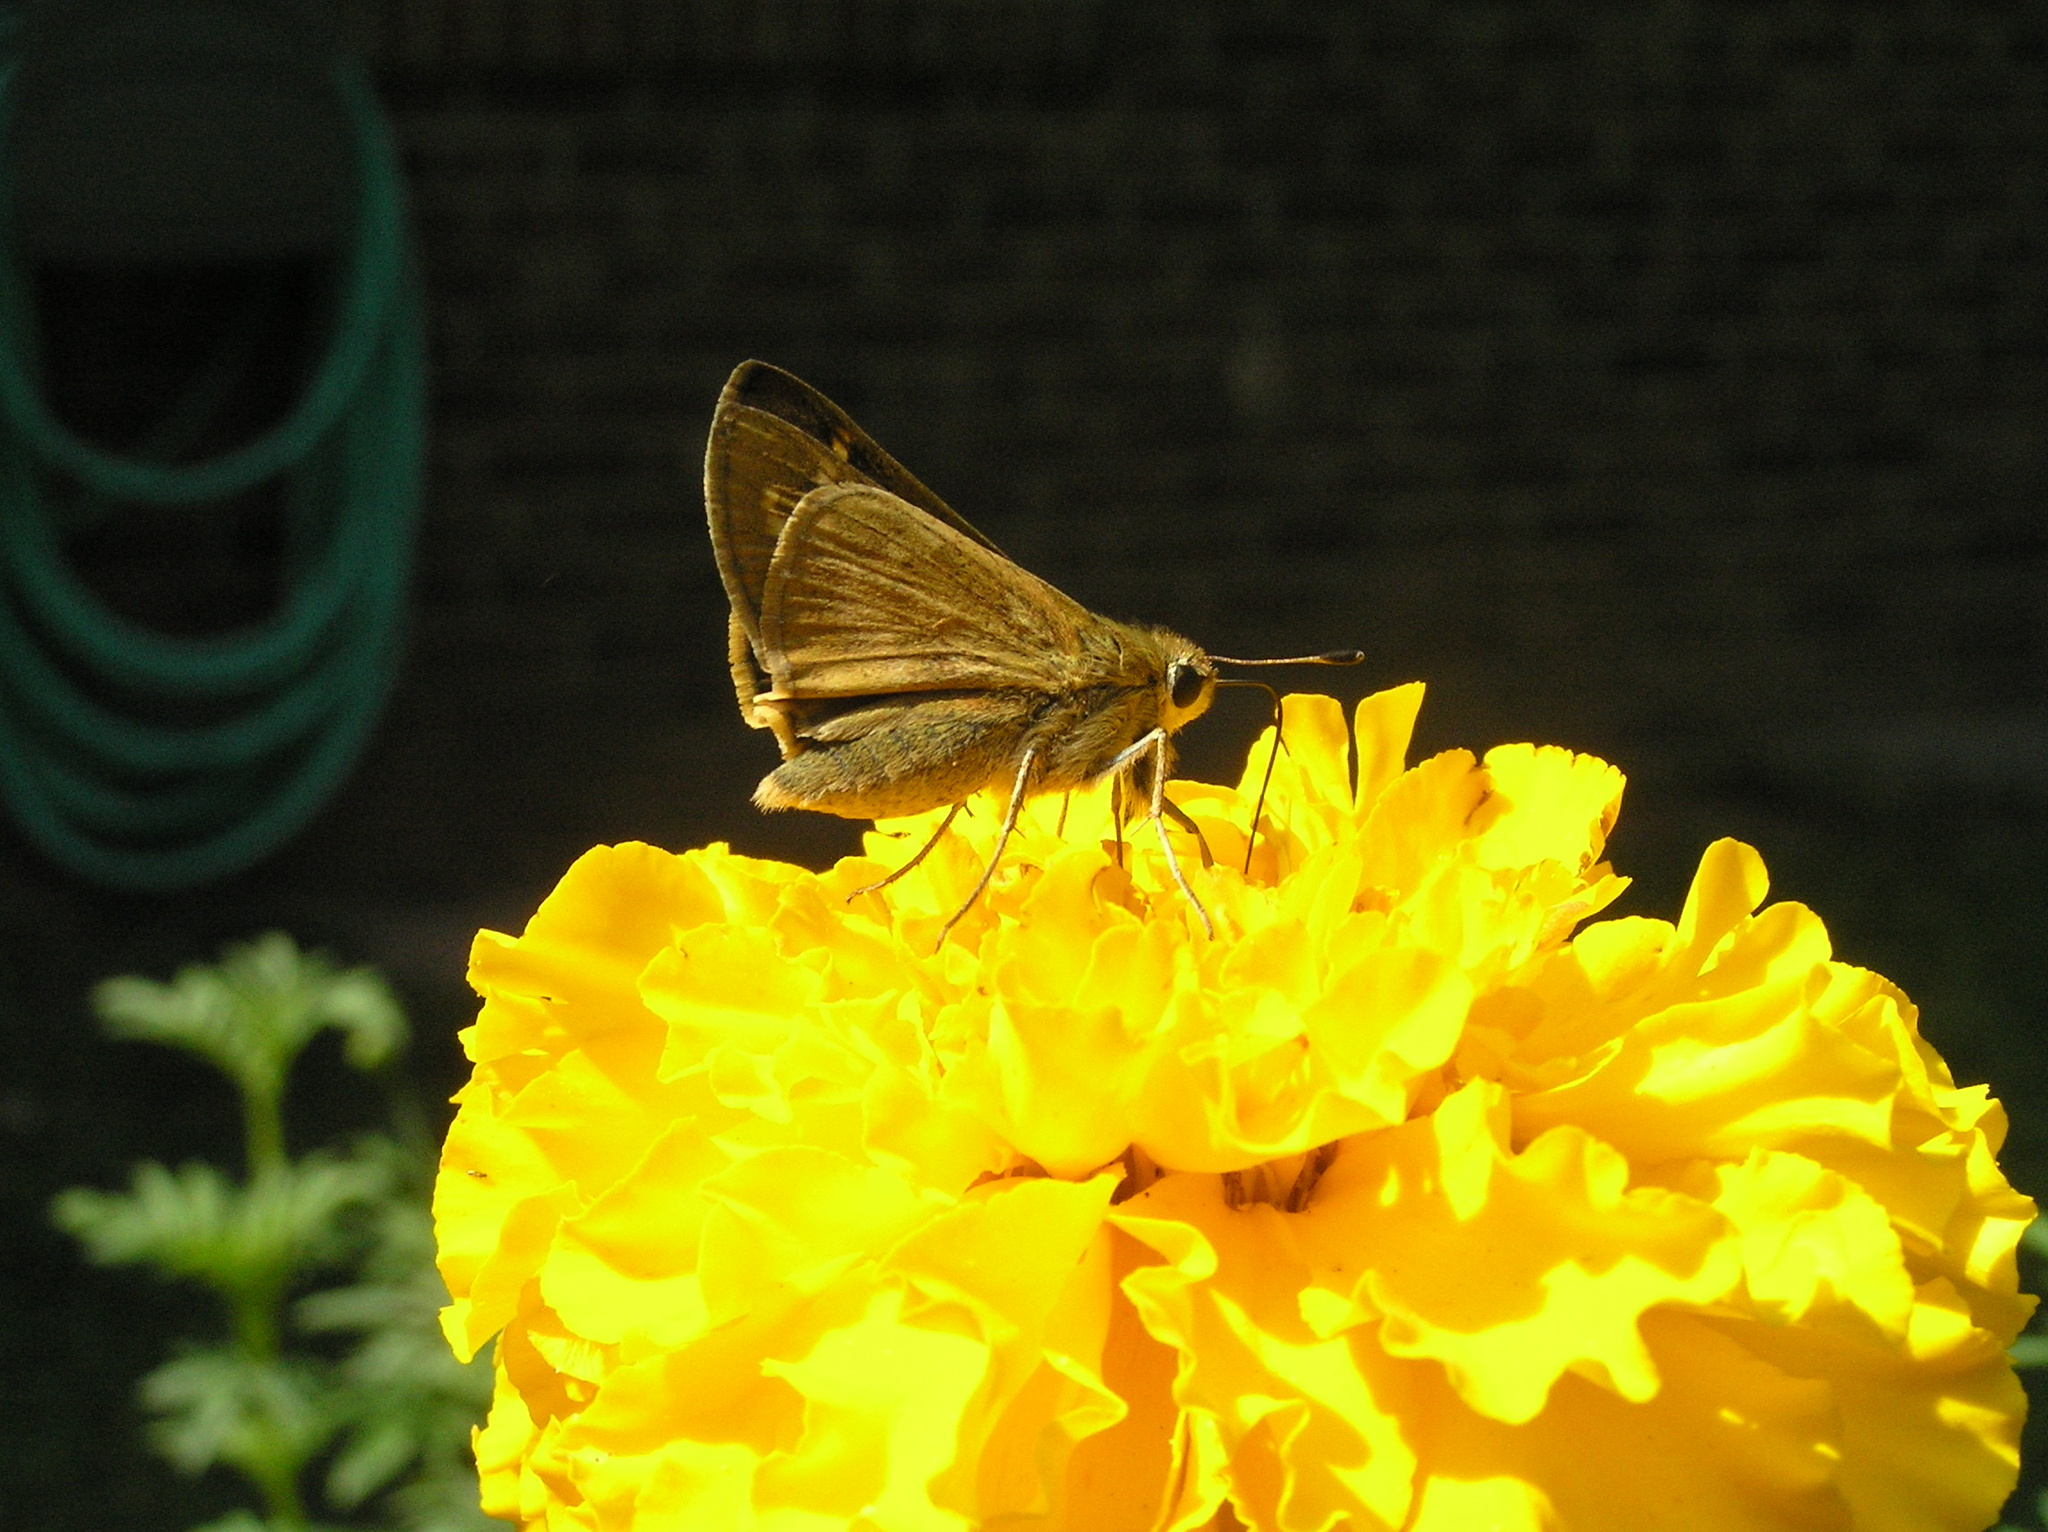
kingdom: Animalia
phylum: Arthropoda
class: Insecta
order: Lepidoptera
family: Hesperiidae
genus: Atalopedes
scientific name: Atalopedes
